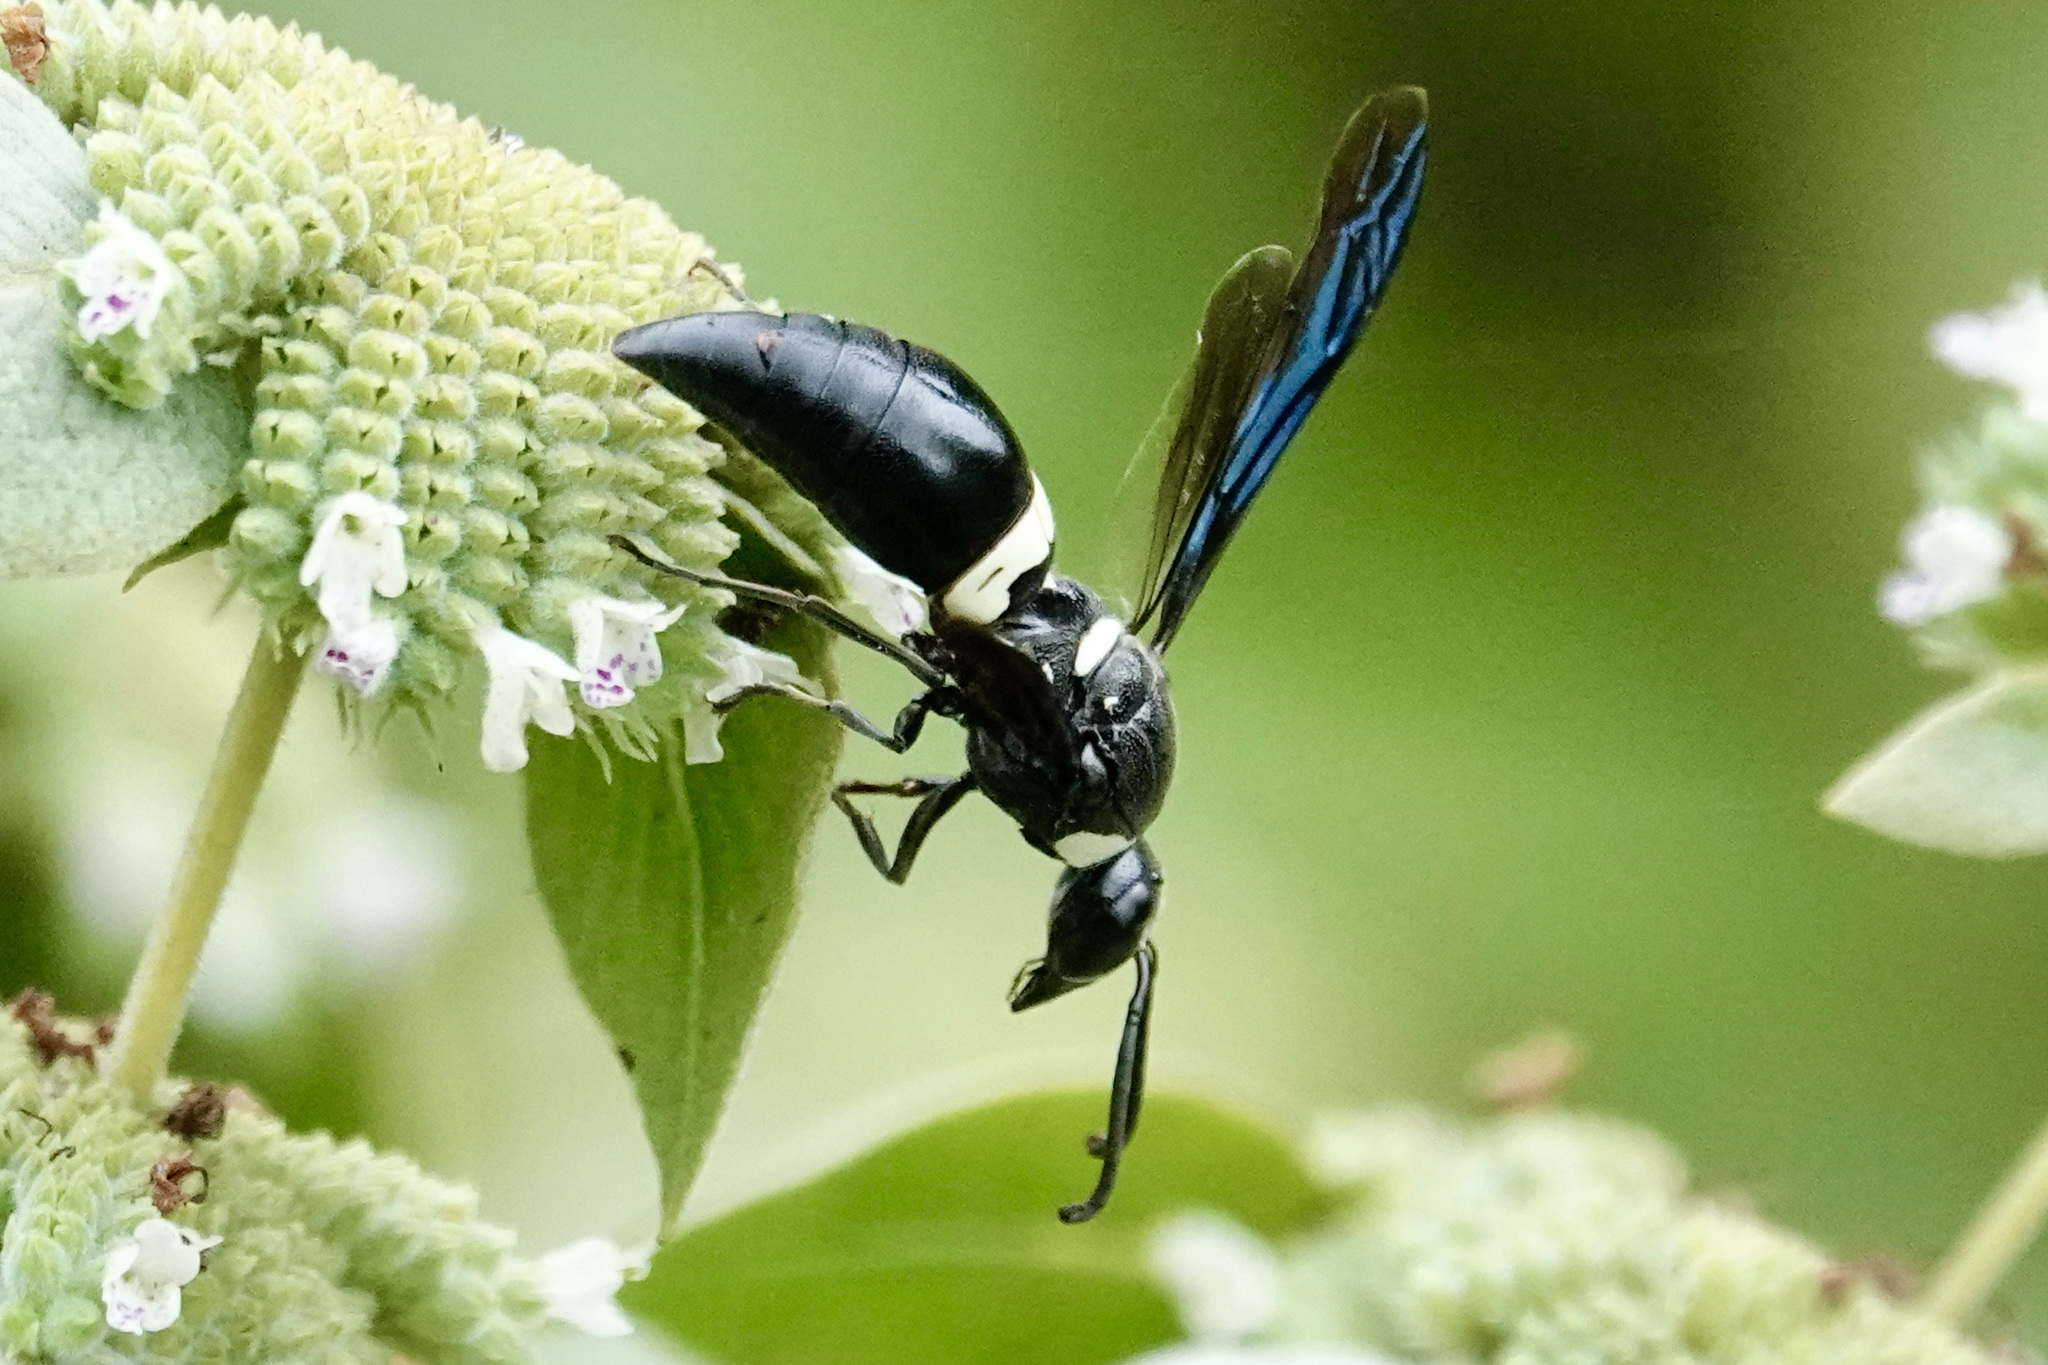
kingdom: Animalia
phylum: Arthropoda
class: Insecta
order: Hymenoptera
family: Eumenidae
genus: Monobia
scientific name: Monobia quadridens
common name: Four-toothed mason wasp
